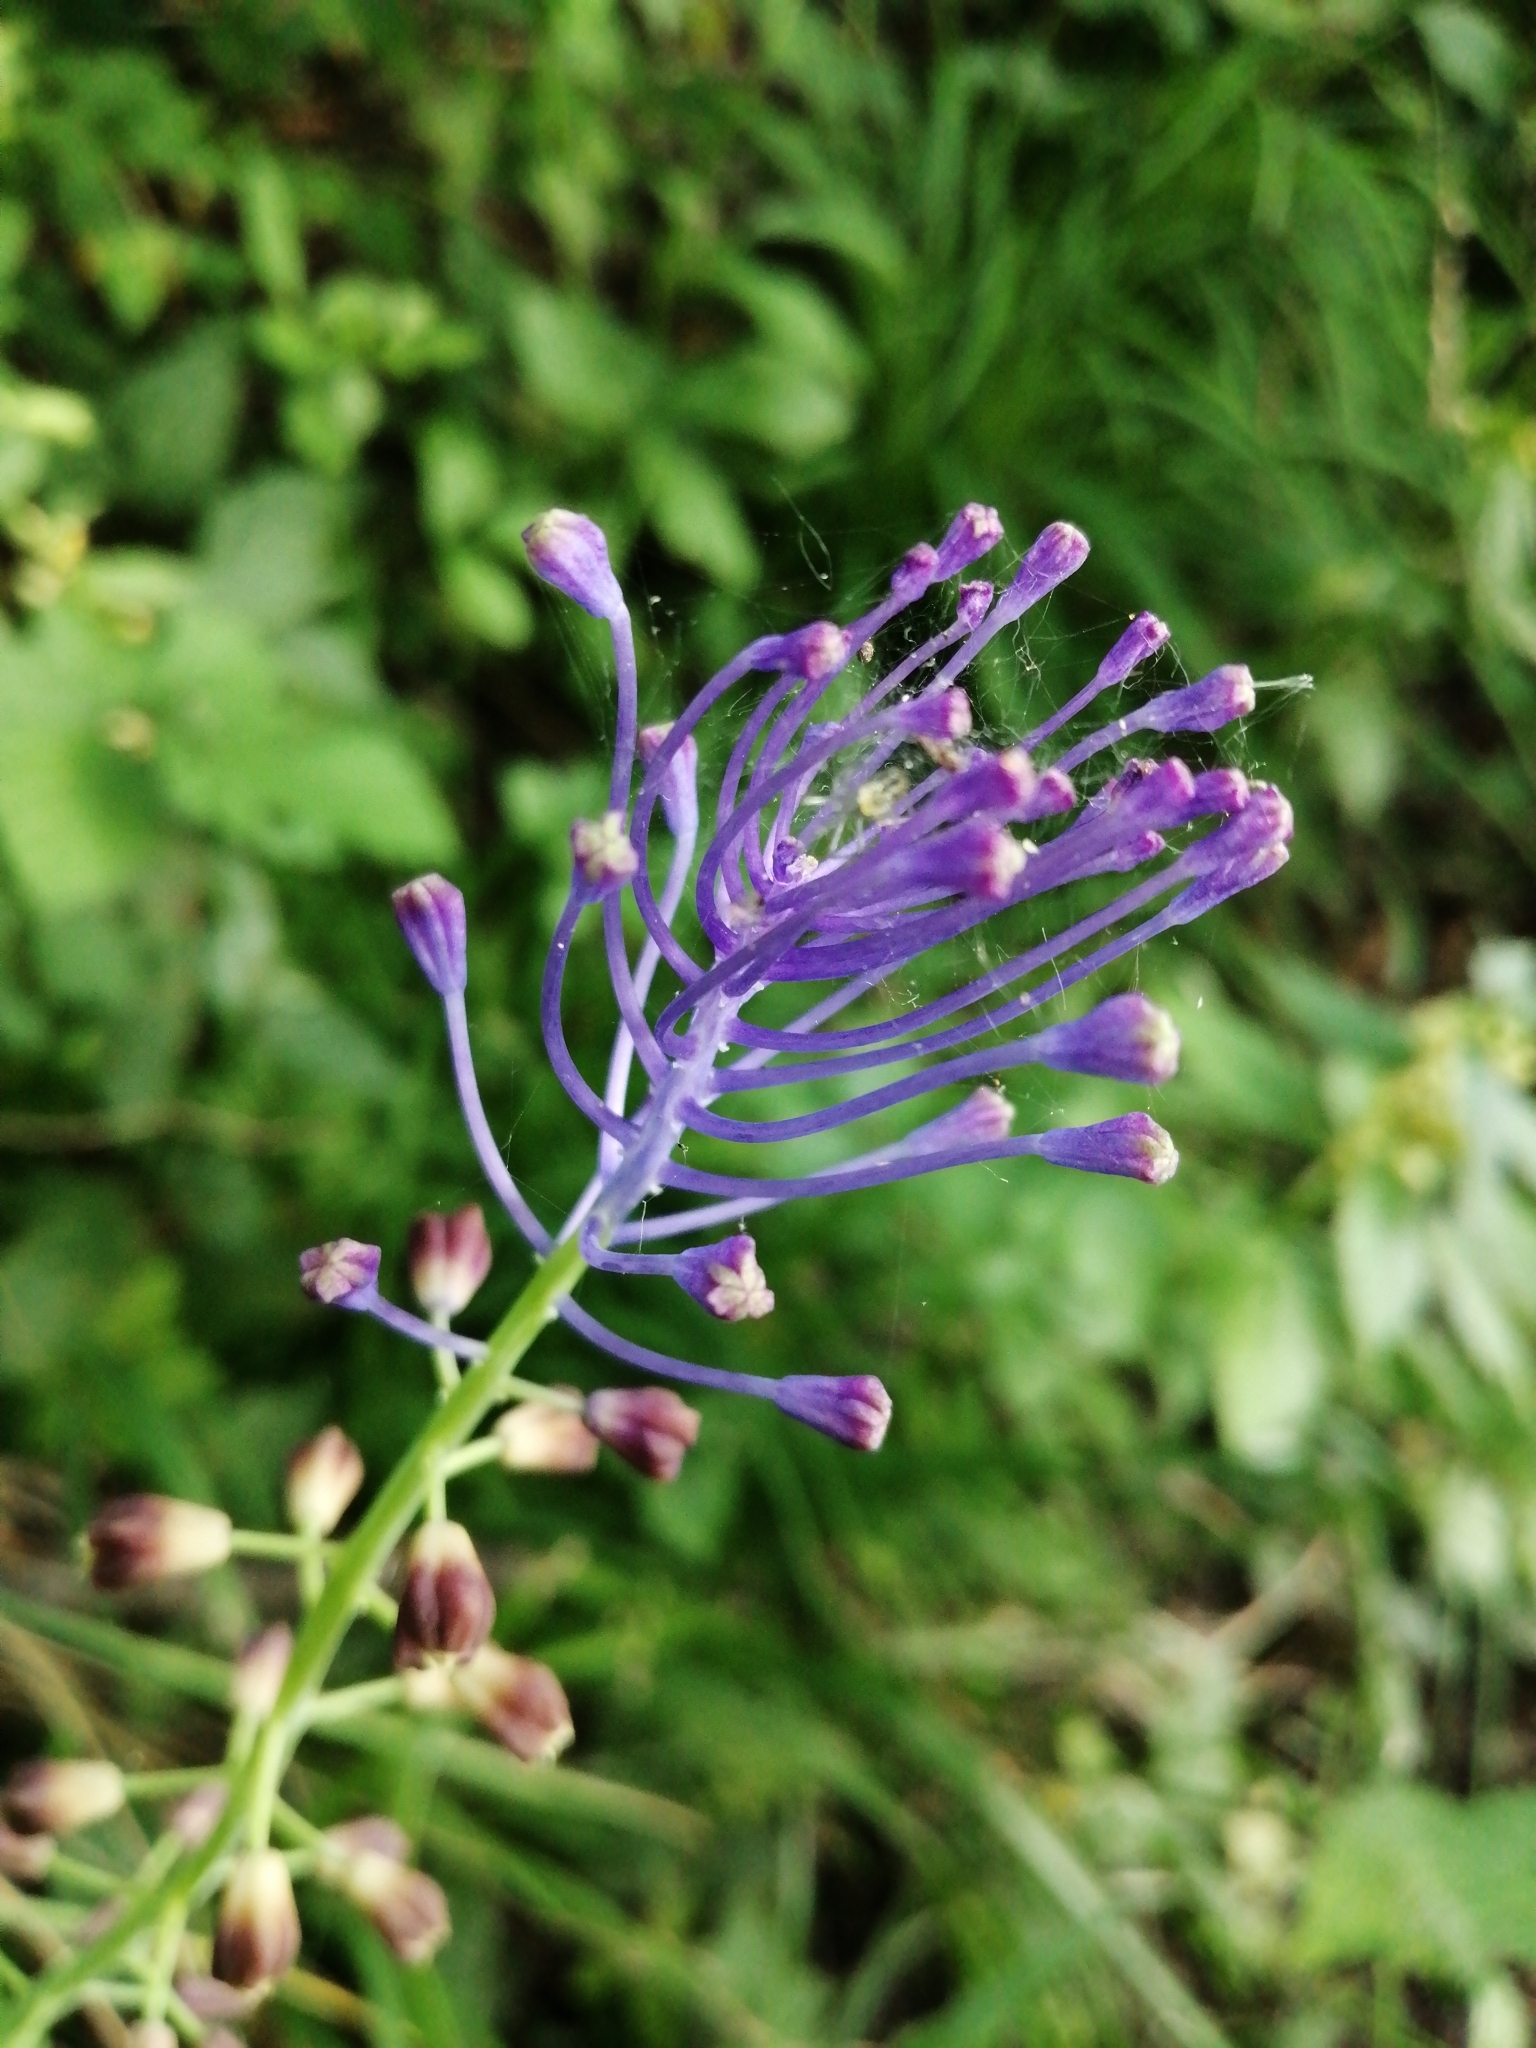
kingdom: Plantae
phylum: Tracheophyta
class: Liliopsida
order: Asparagales
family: Asparagaceae
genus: Muscari
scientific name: Muscari comosum
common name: Tassel hyacinth
